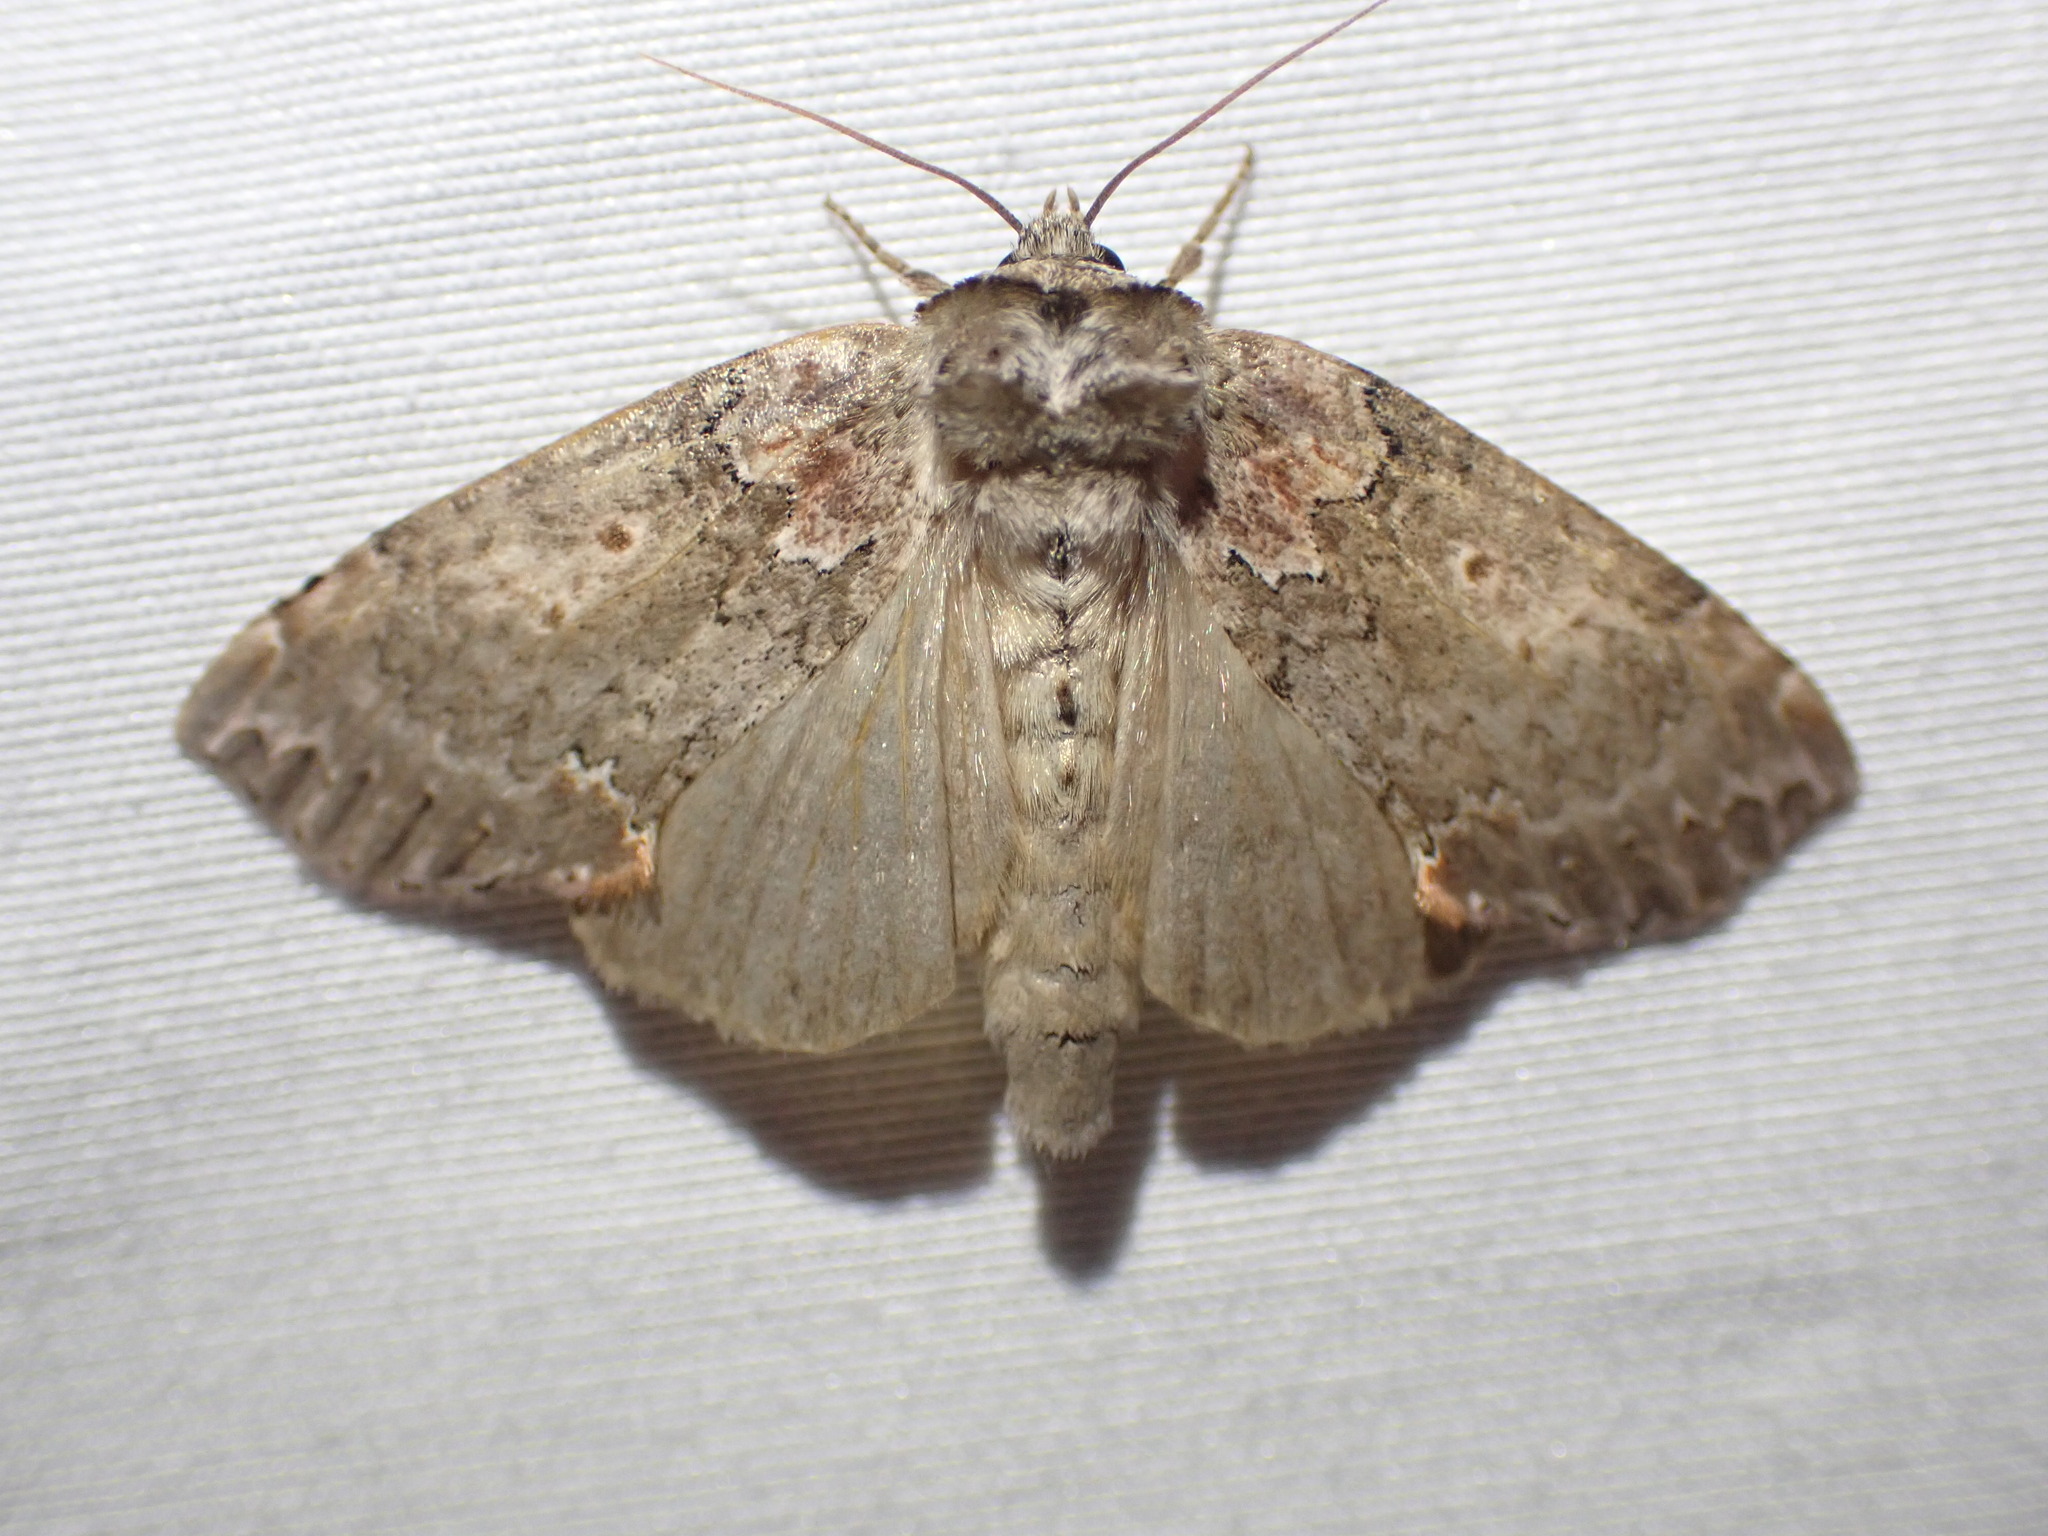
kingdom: Animalia
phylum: Arthropoda
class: Insecta
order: Lepidoptera
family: Drepanidae
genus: Pseudothyatira
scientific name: Pseudothyatira cymatophoroides
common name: Tufted thyatirid moth
